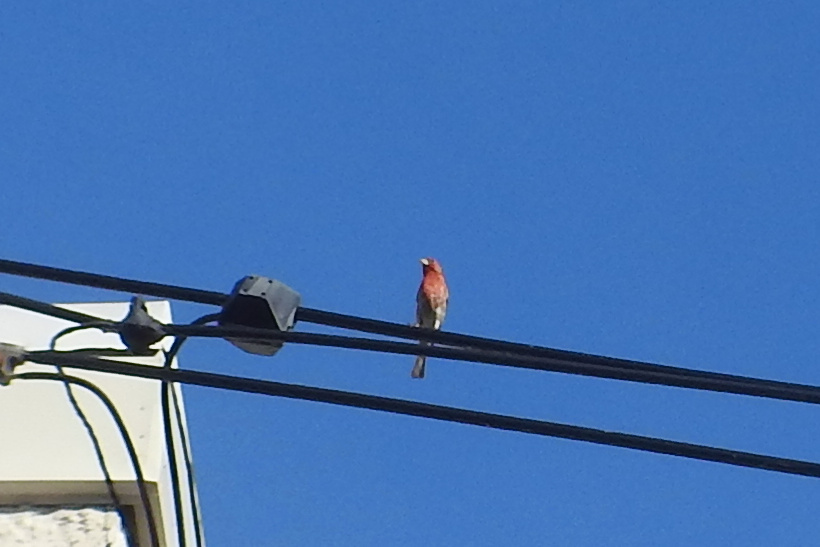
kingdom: Animalia
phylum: Chordata
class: Aves
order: Passeriformes
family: Fringillidae
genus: Haemorhous
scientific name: Haemorhous mexicanus
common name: House finch
